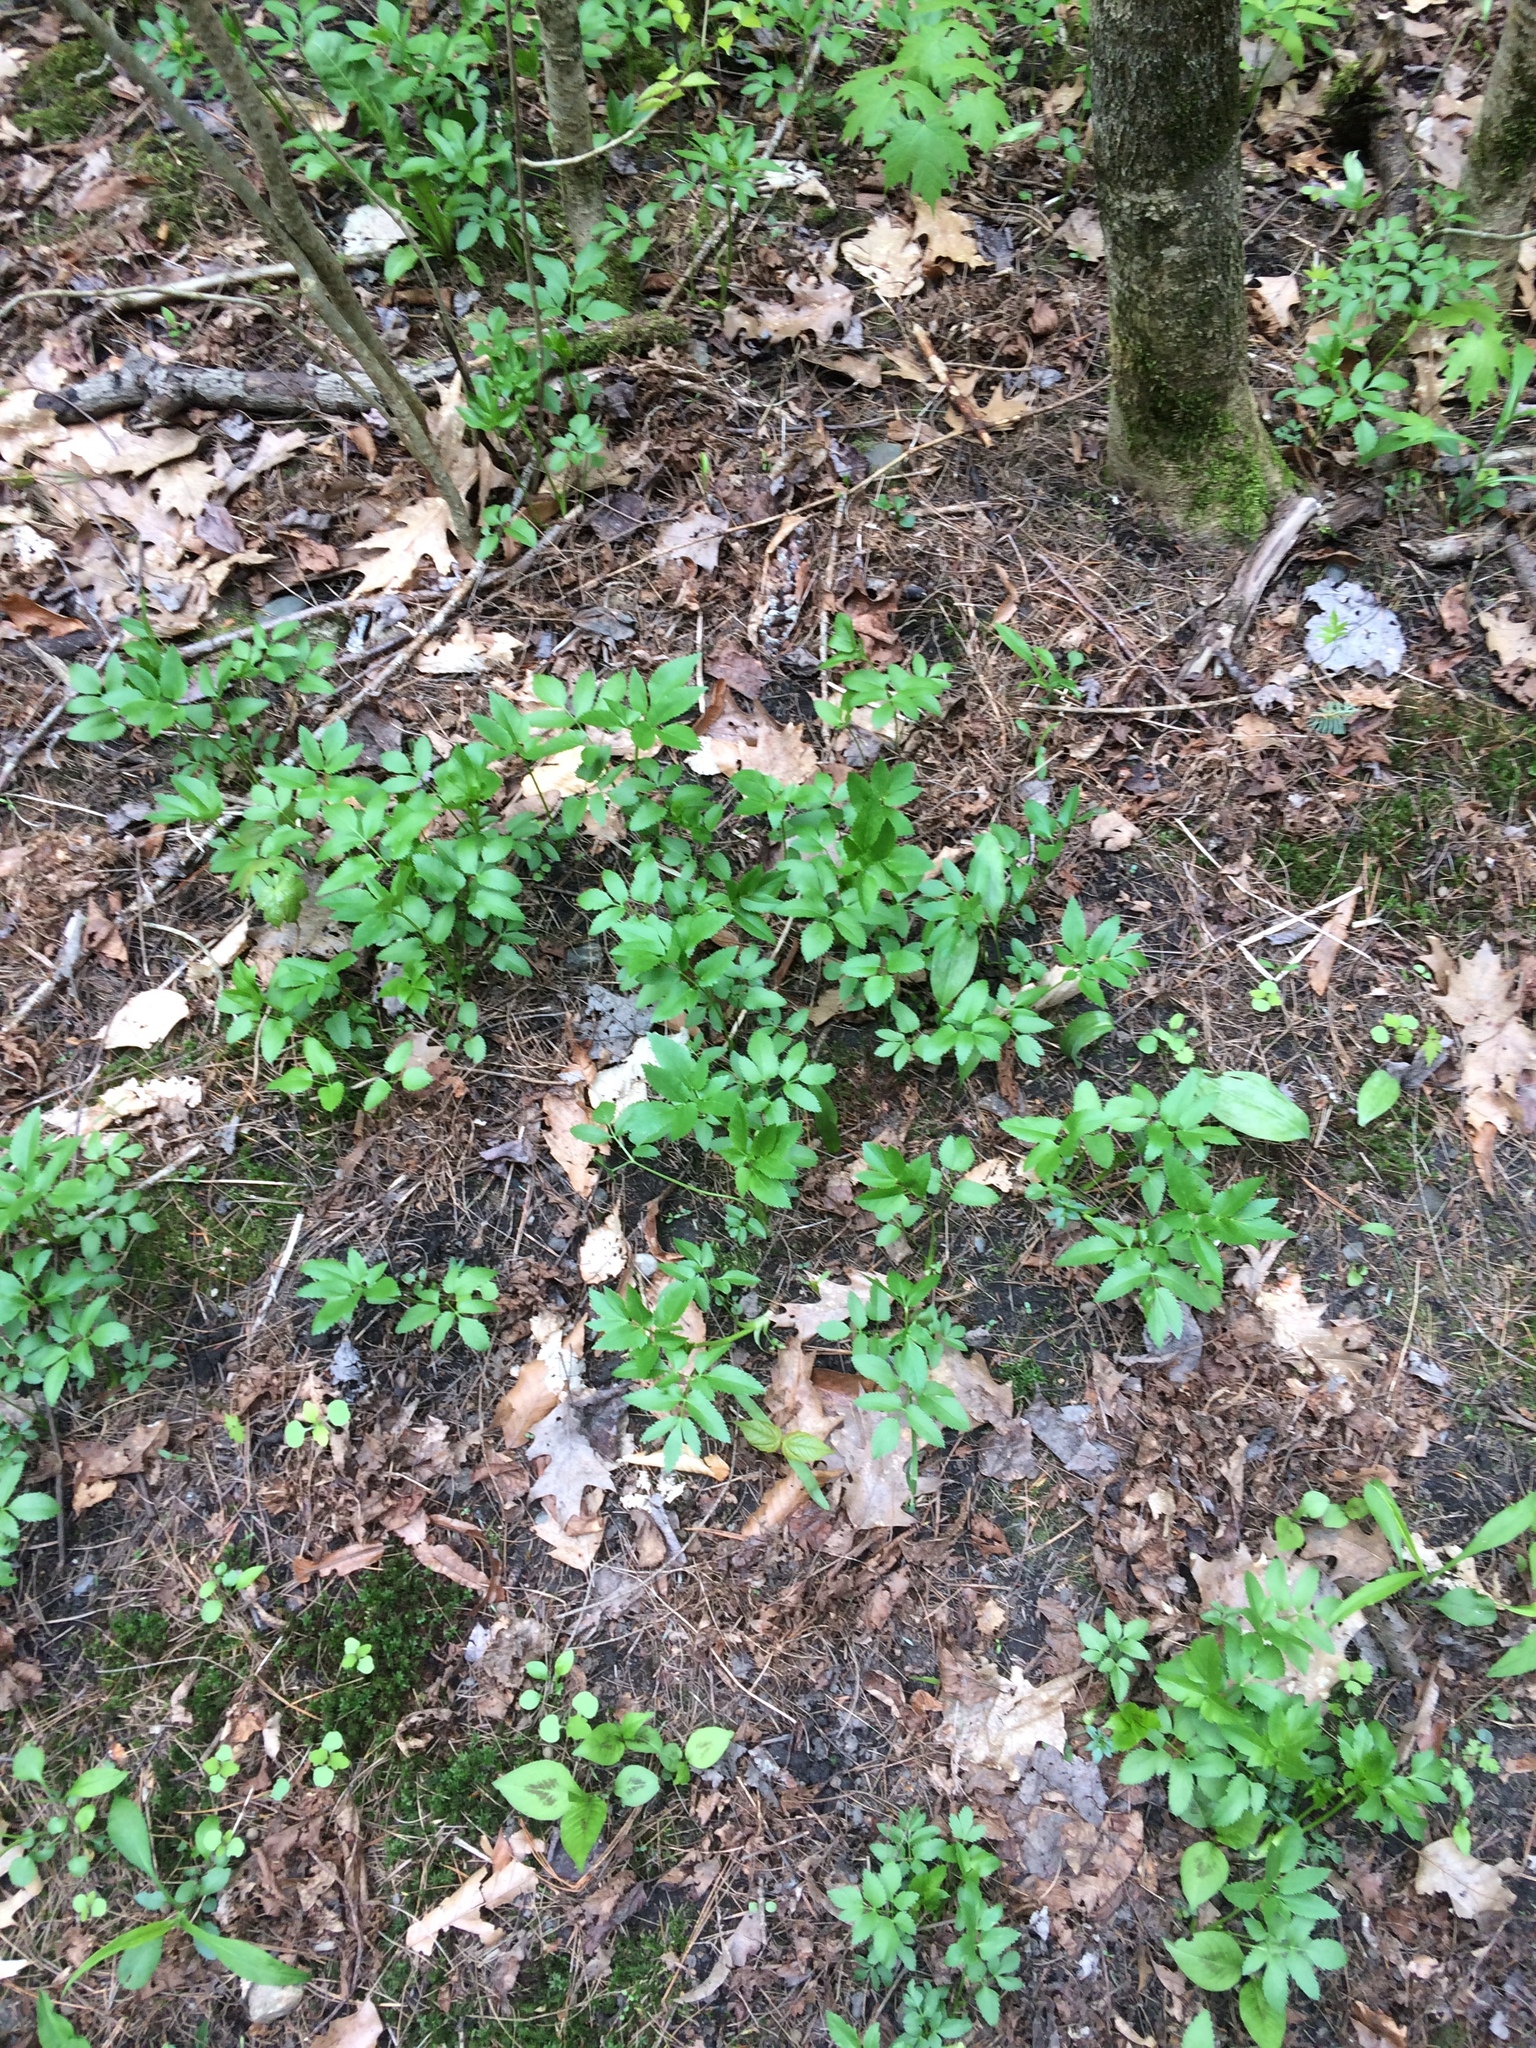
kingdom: Plantae
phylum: Tracheophyta
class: Magnoliopsida
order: Apiales
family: Apiaceae
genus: Aegopodium
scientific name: Aegopodium podagraria
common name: Ground-elder
